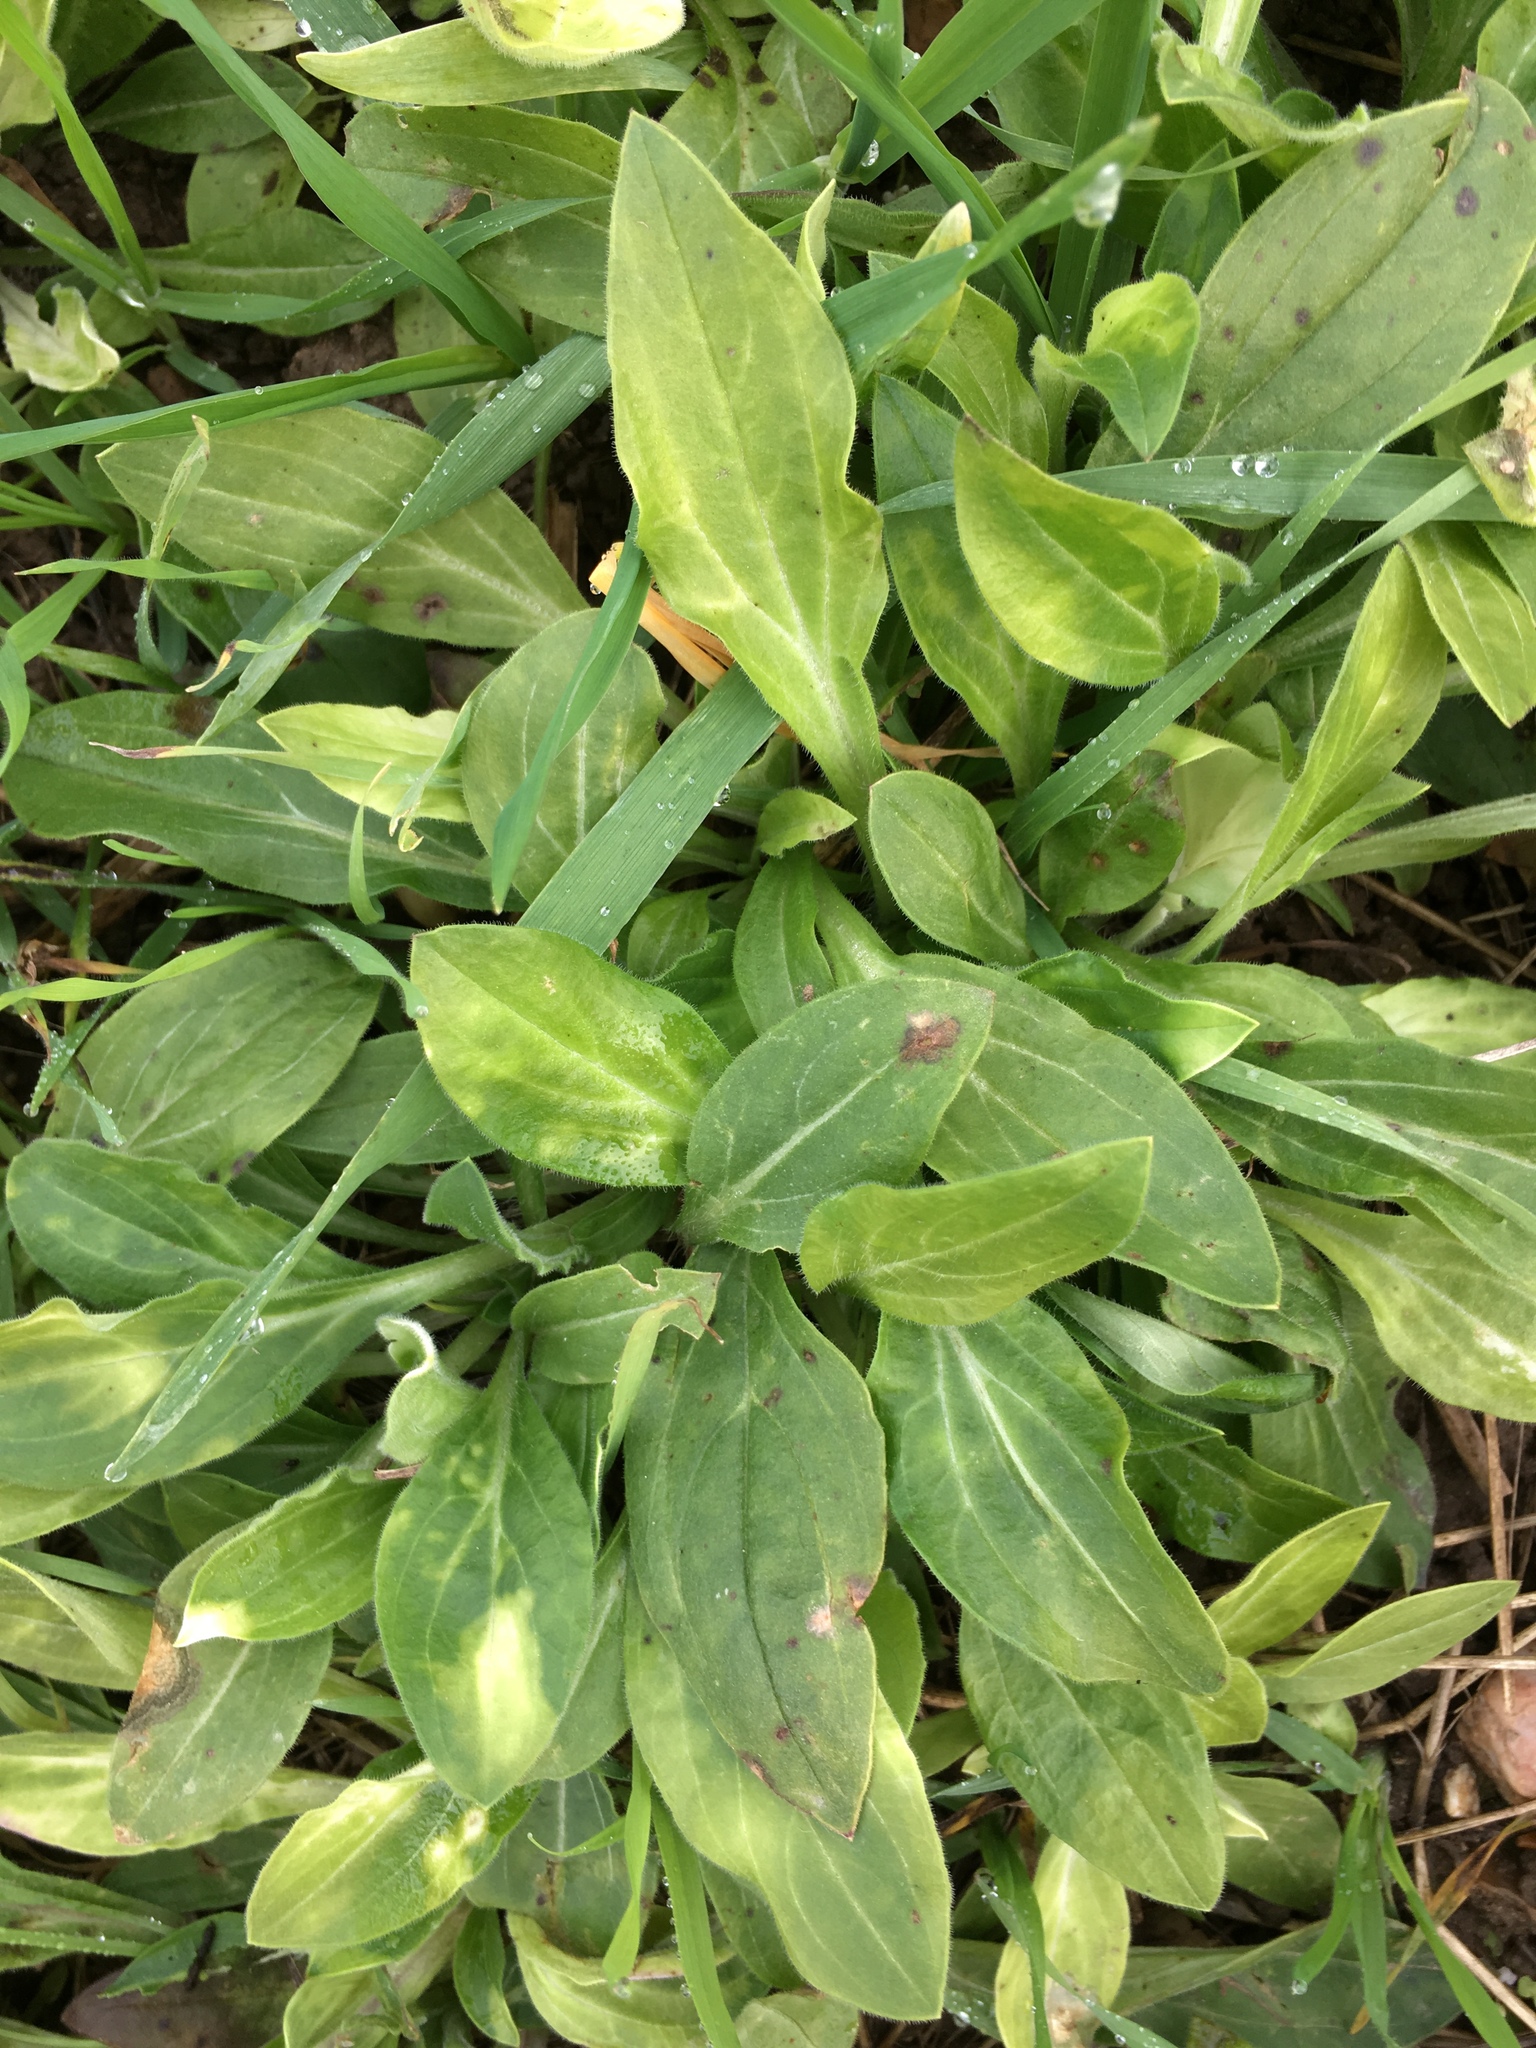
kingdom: Plantae
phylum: Tracheophyta
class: Magnoliopsida
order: Lamiales
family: Plantaginaceae
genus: Plantago
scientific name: Plantago major
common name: Common plantain
